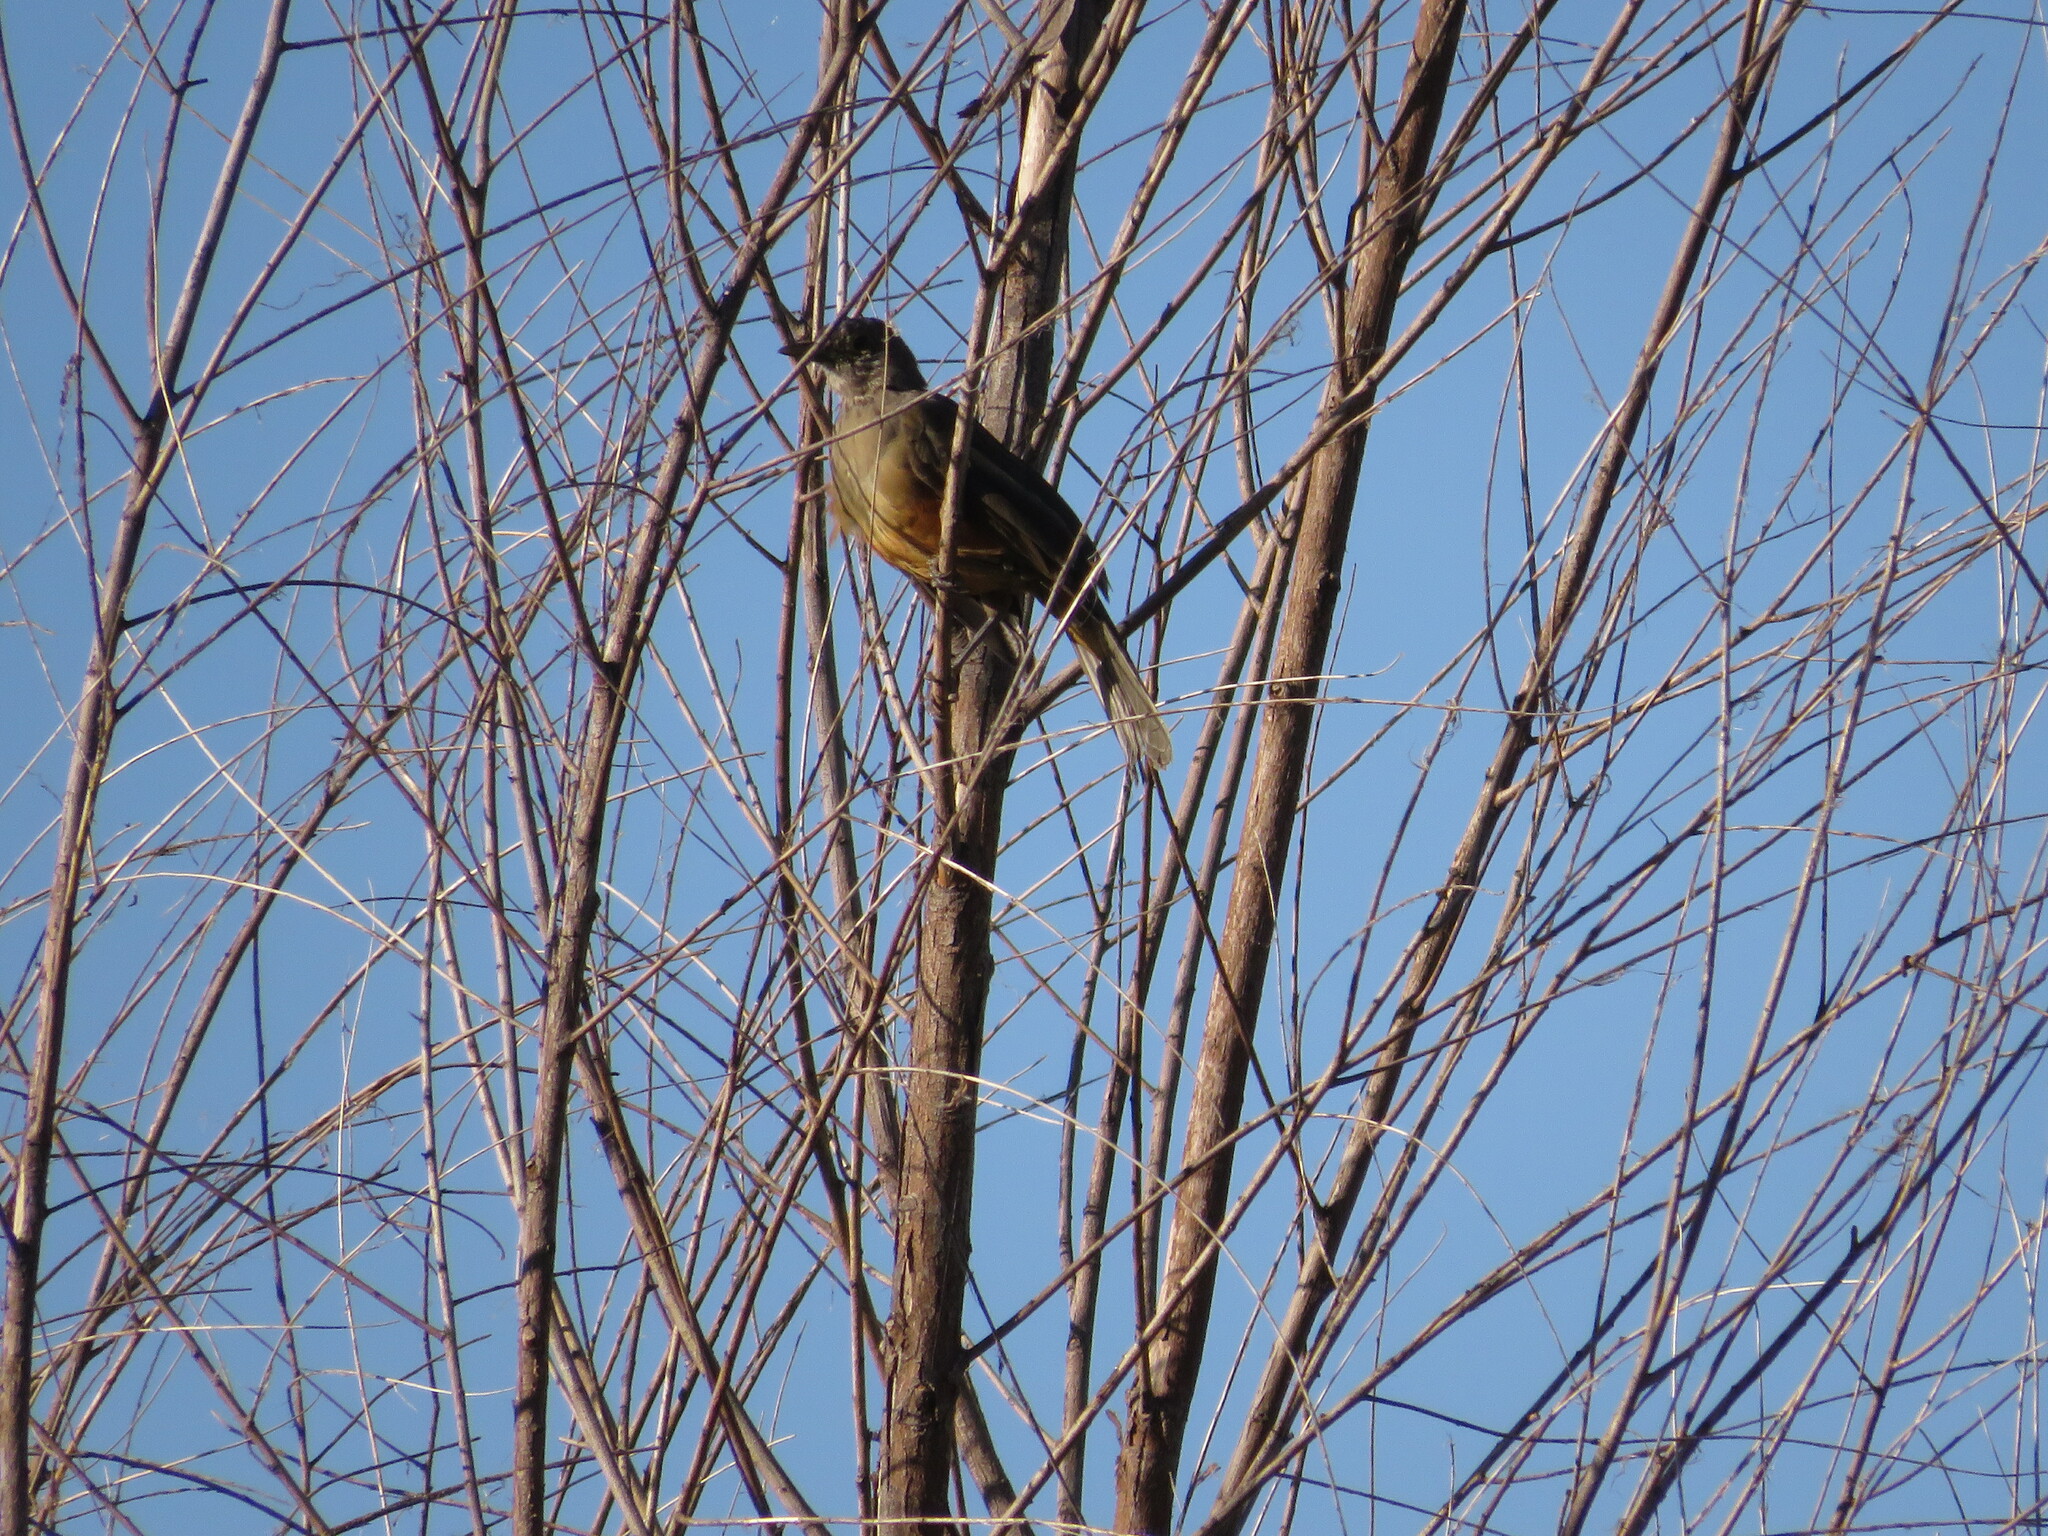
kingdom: Animalia
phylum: Chordata
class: Aves
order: Passeriformes
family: Turdidae
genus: Turdus
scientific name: Turdus rufiventris
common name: Rufous-bellied thrush
